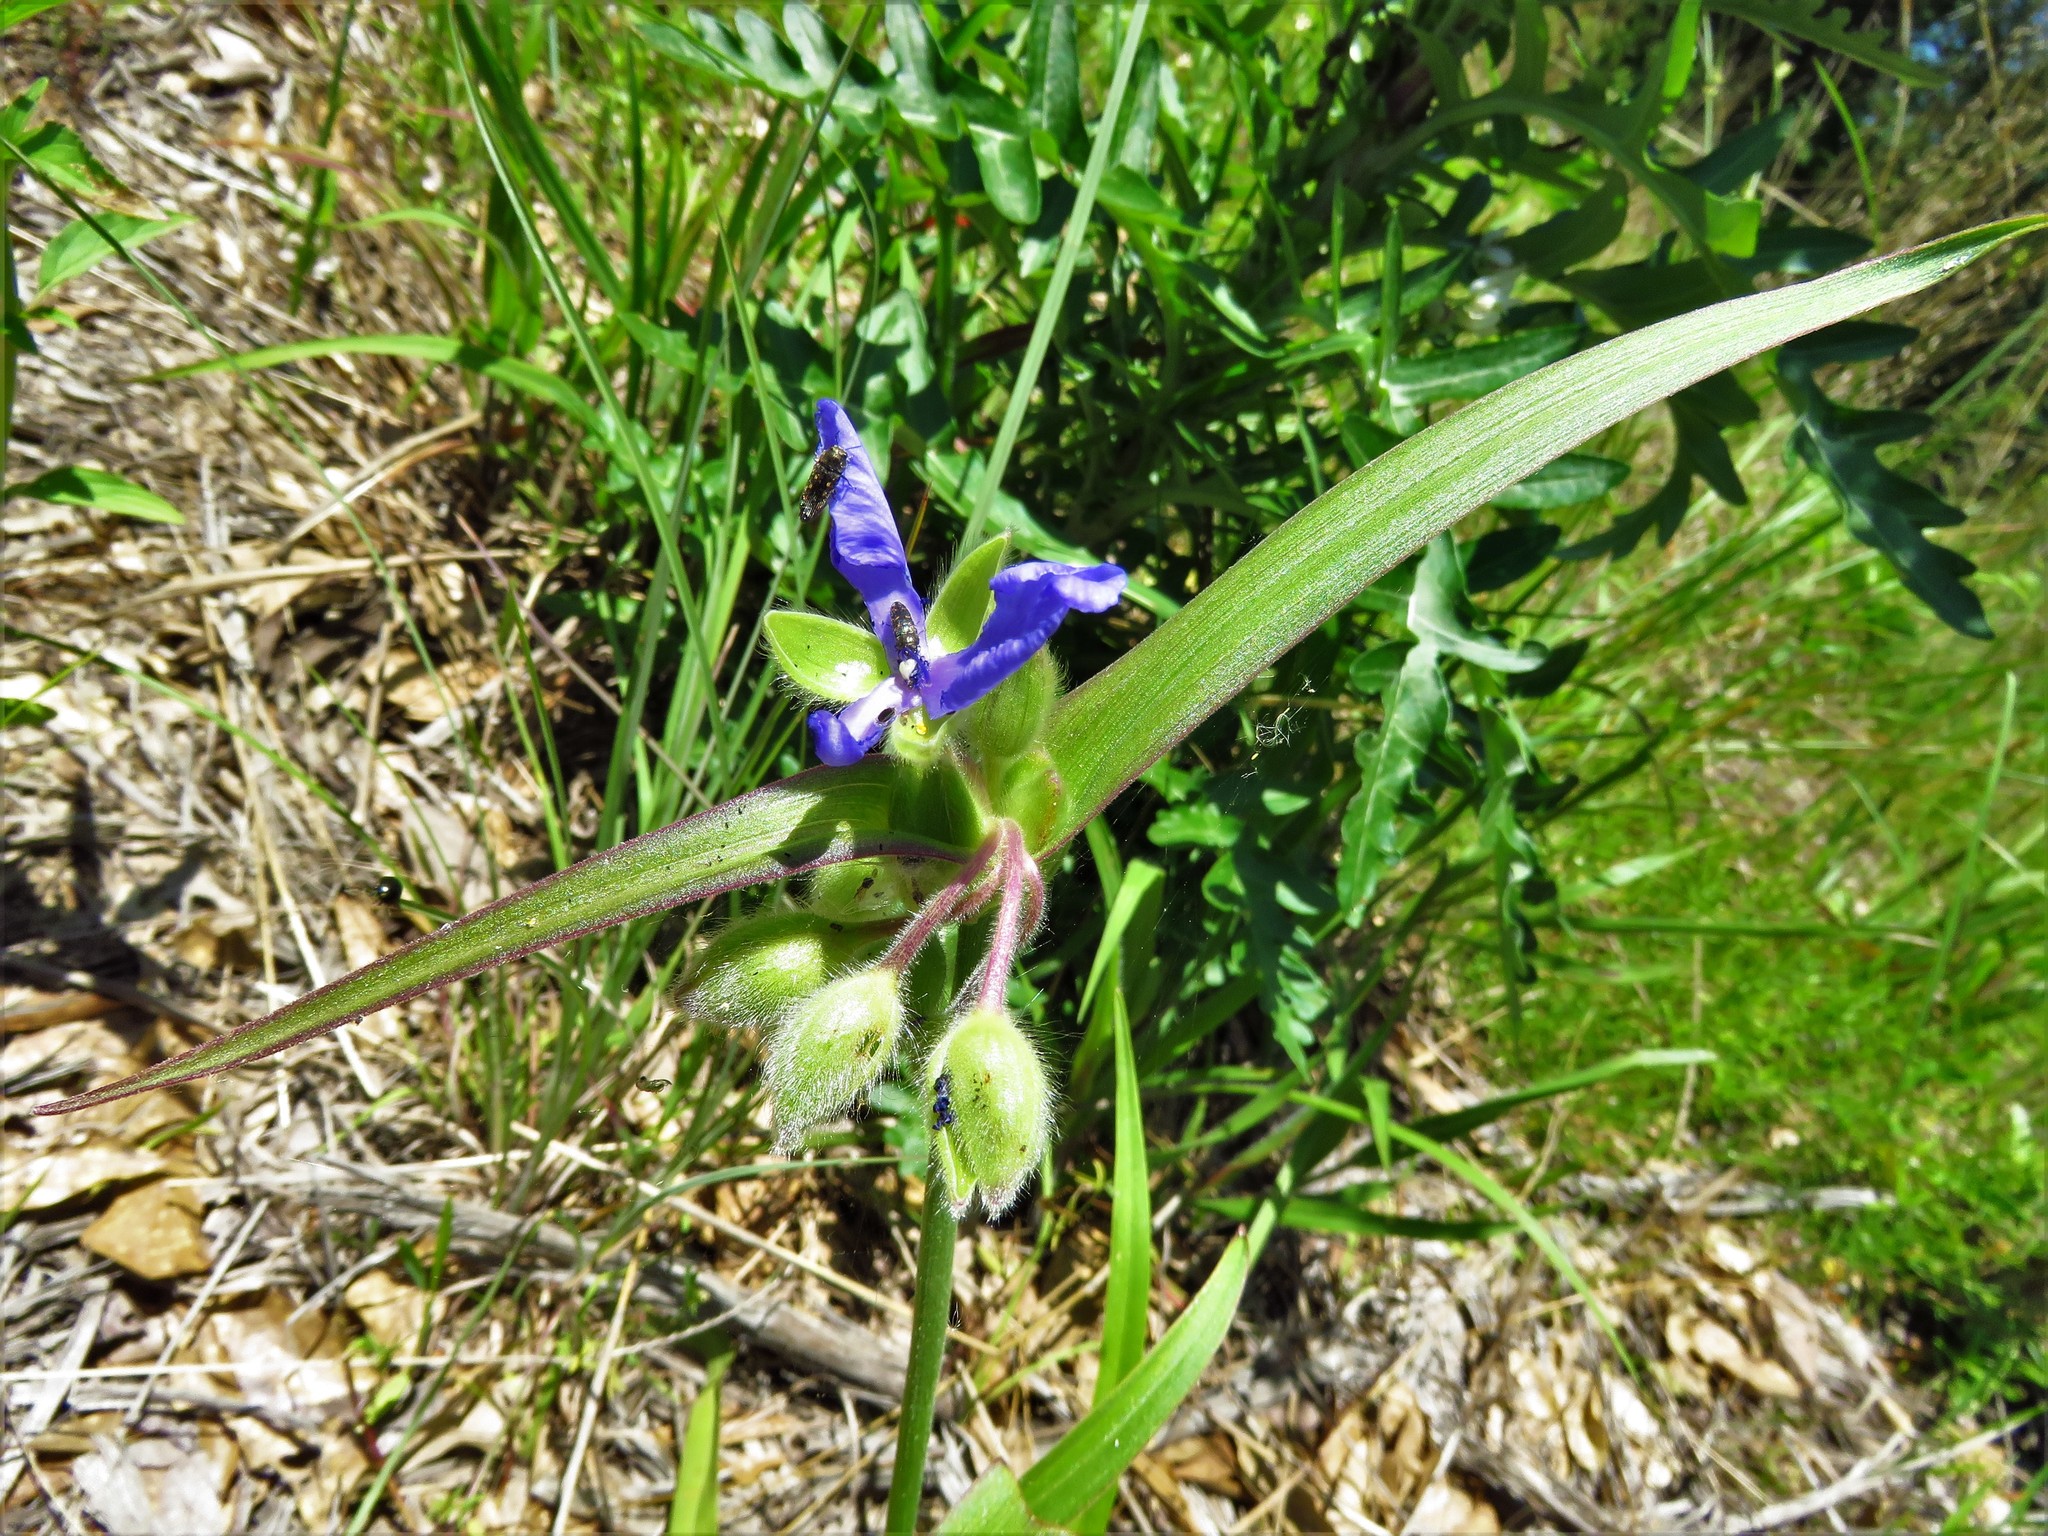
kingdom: Plantae
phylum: Tracheophyta
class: Liliopsida
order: Commelinales
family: Commelinaceae
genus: Tradescantia
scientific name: Tradescantia hirsutiflora
